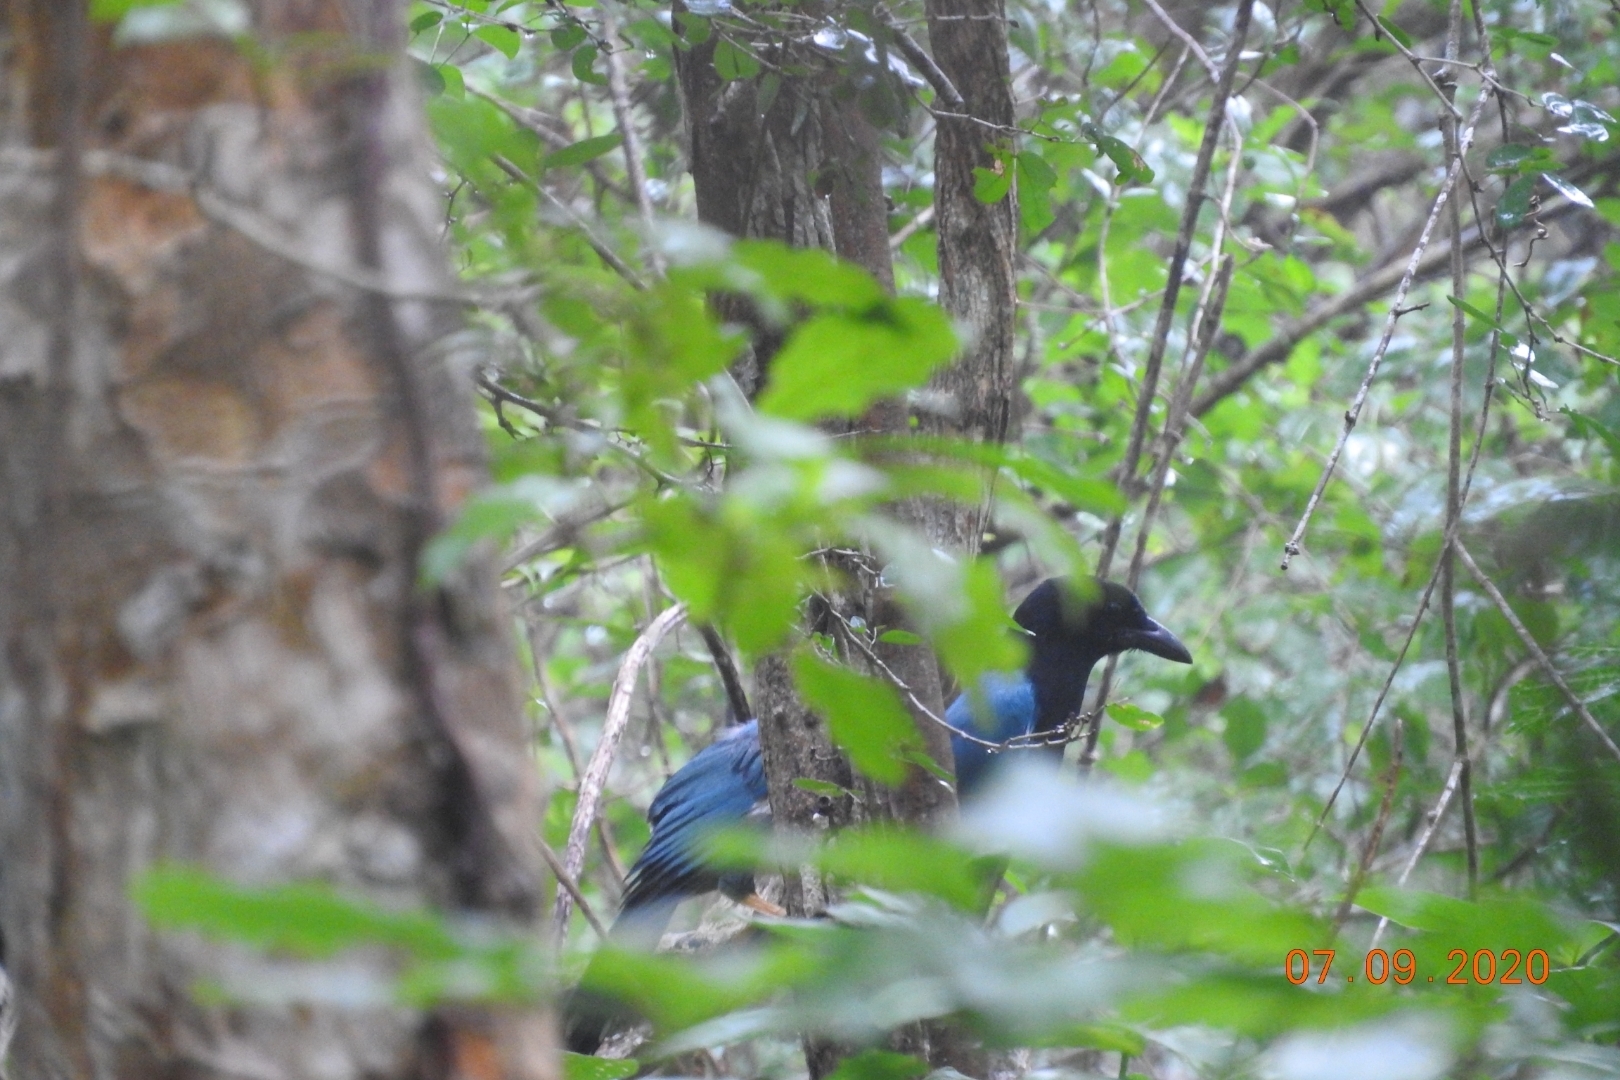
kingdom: Animalia
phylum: Chordata
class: Aves
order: Passeriformes
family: Corvidae
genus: Cyanocorax
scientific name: Cyanocorax yucatanicus
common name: Yucatan jay
